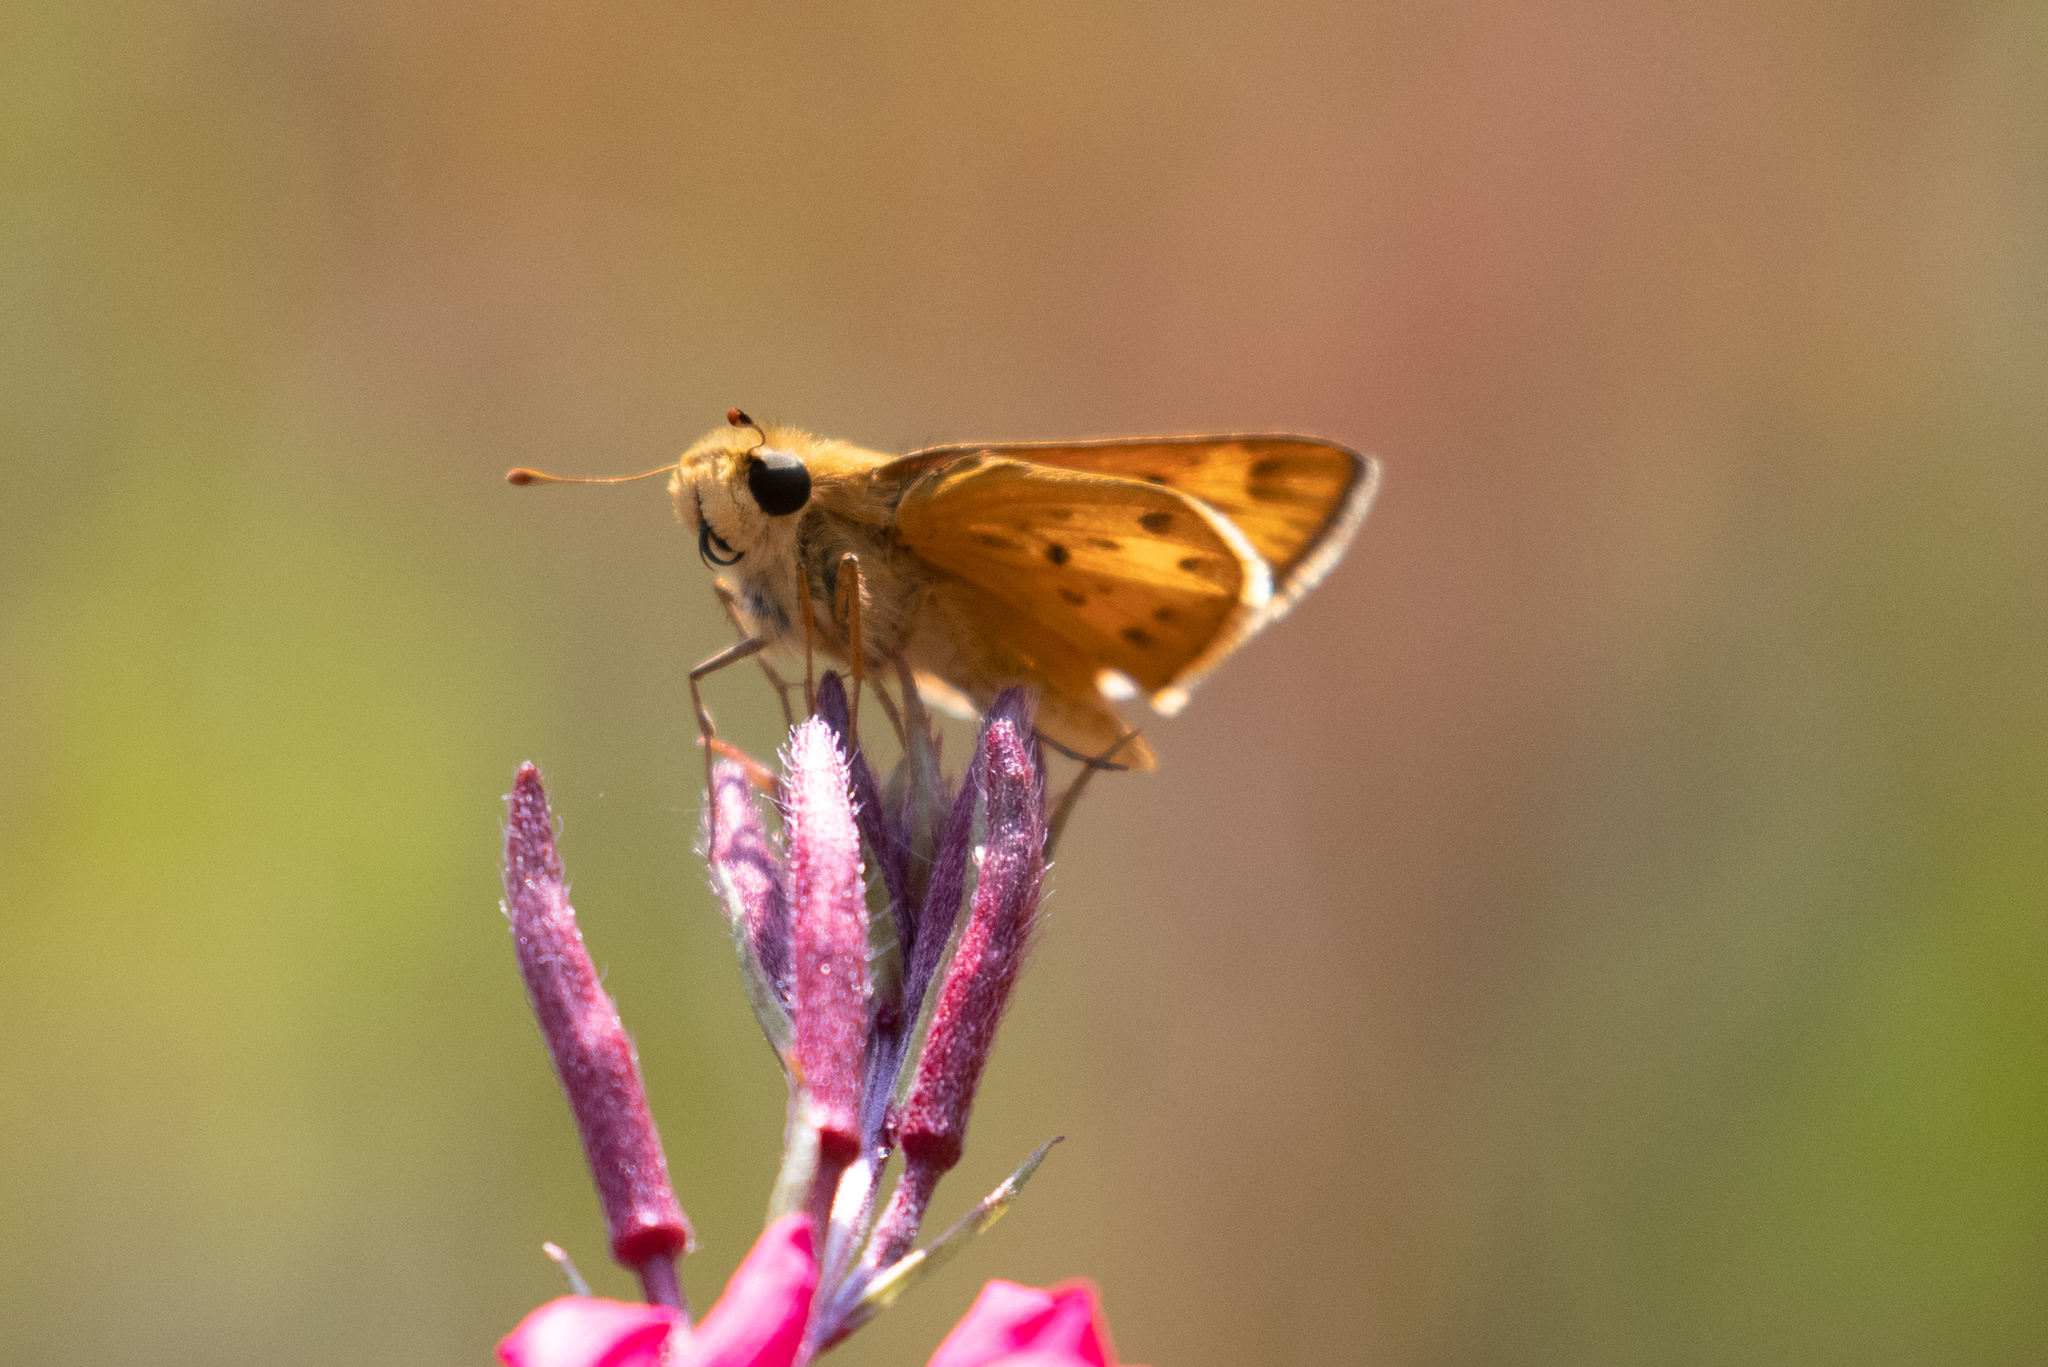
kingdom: Animalia
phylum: Arthropoda
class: Insecta
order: Lepidoptera
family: Hesperiidae
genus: Hylephila
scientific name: Hylephila phyleus
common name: Fiery skipper
